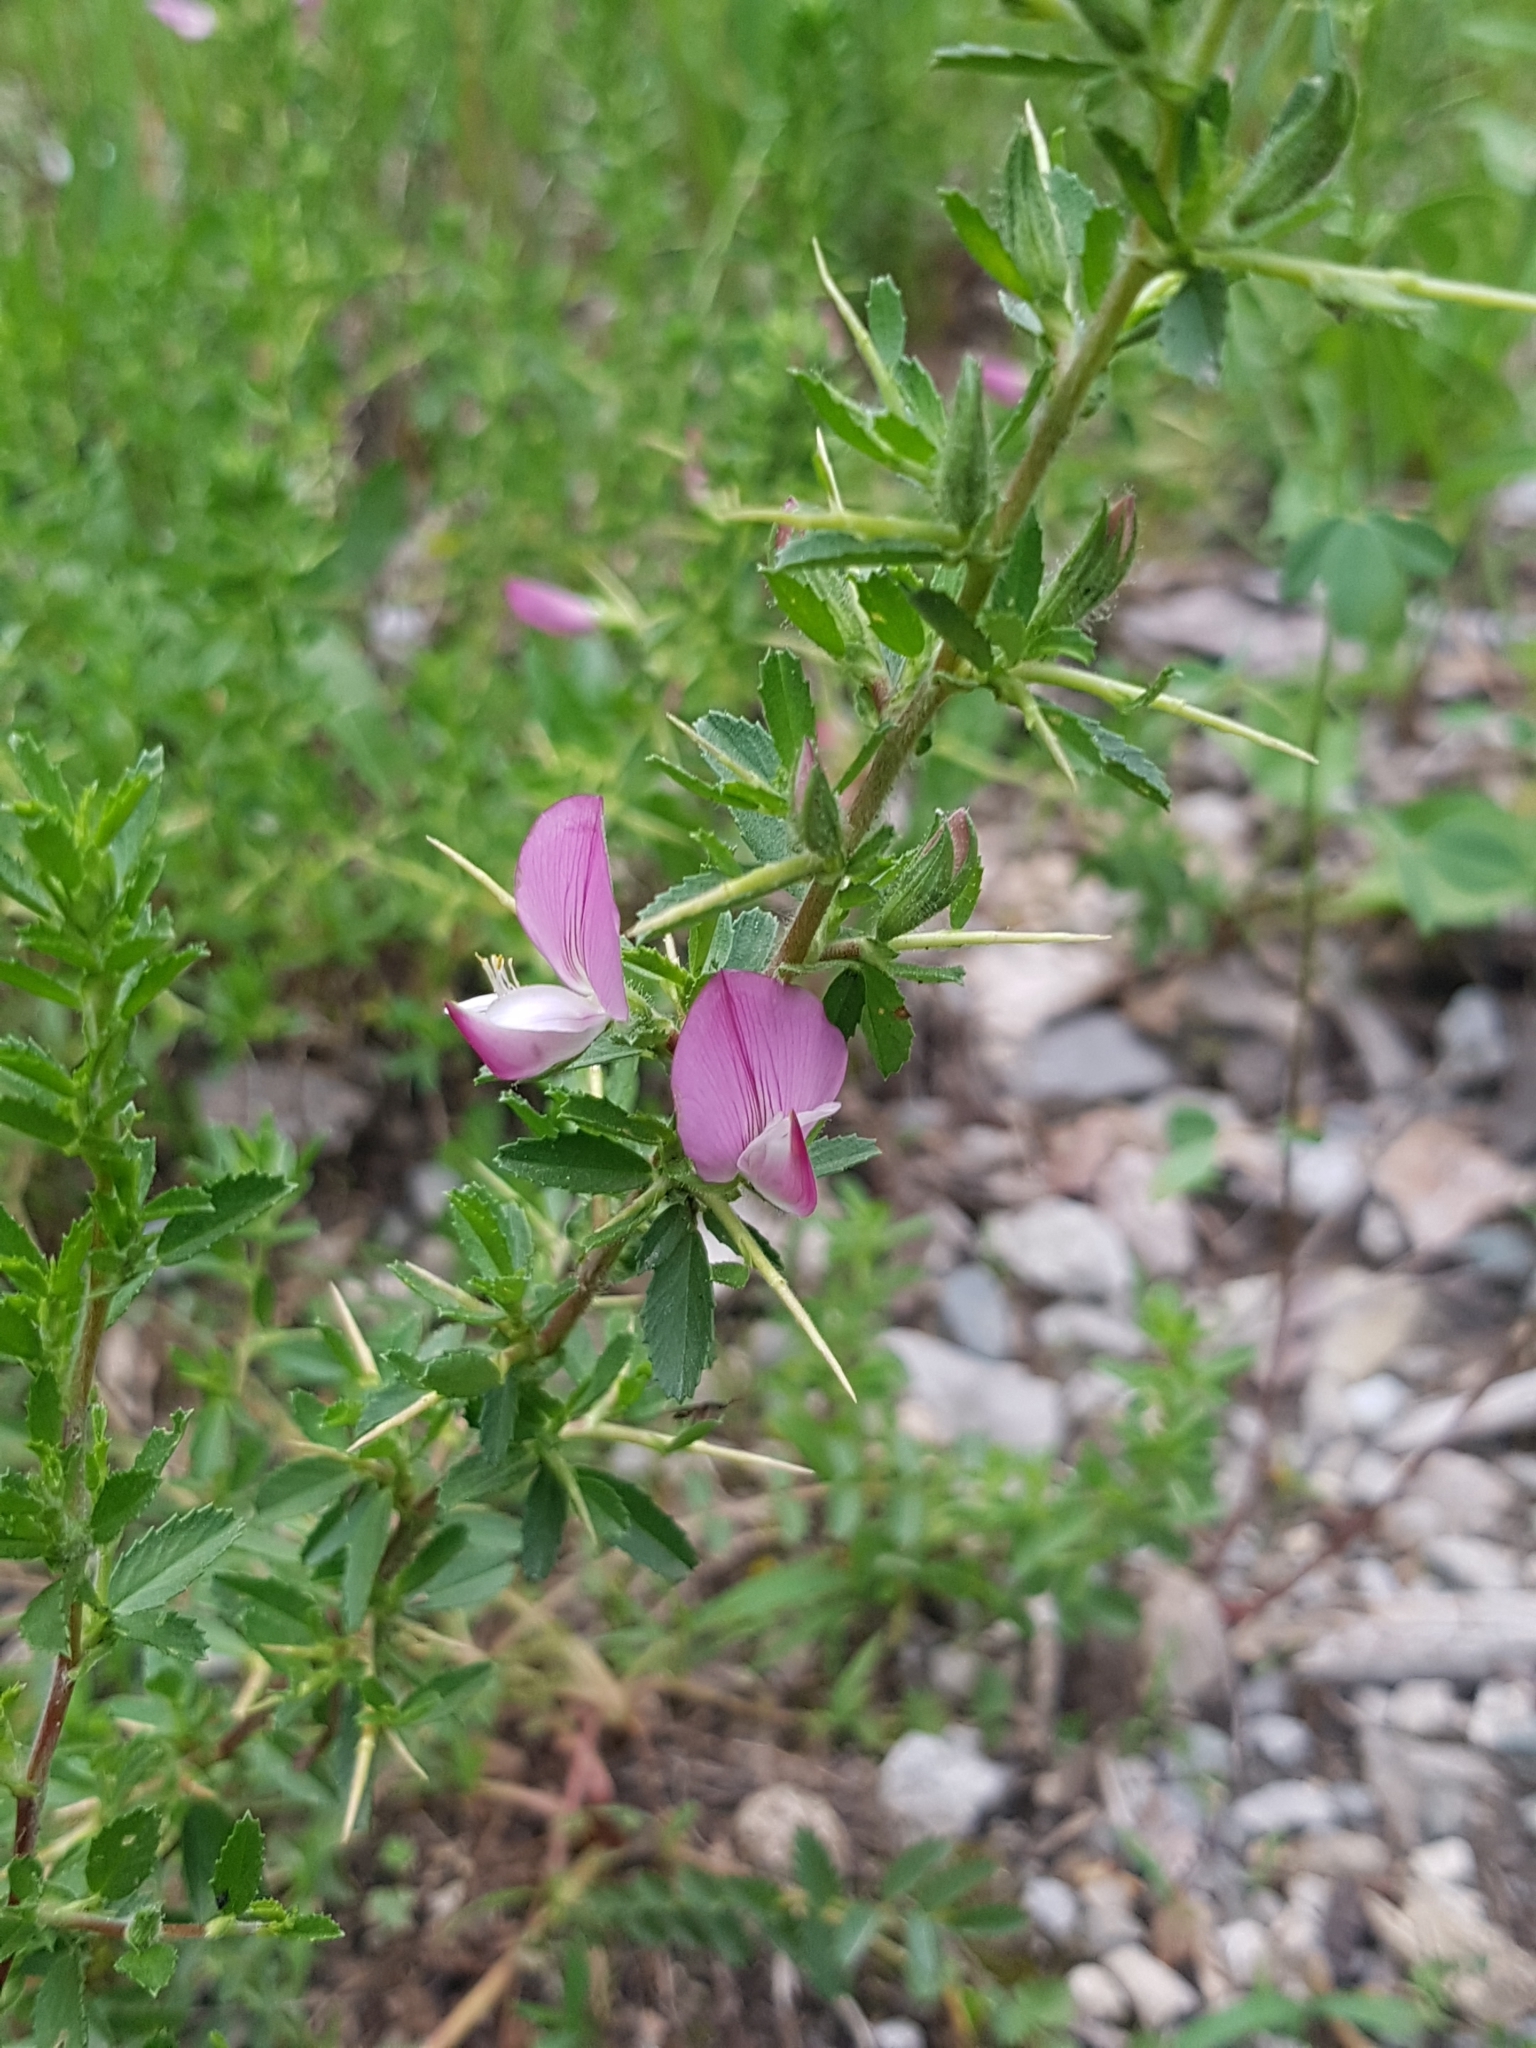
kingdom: Plantae
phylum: Tracheophyta
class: Magnoliopsida
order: Fabales
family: Fabaceae
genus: Ononis
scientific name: Ononis spinosa
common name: Spiny restharrow
